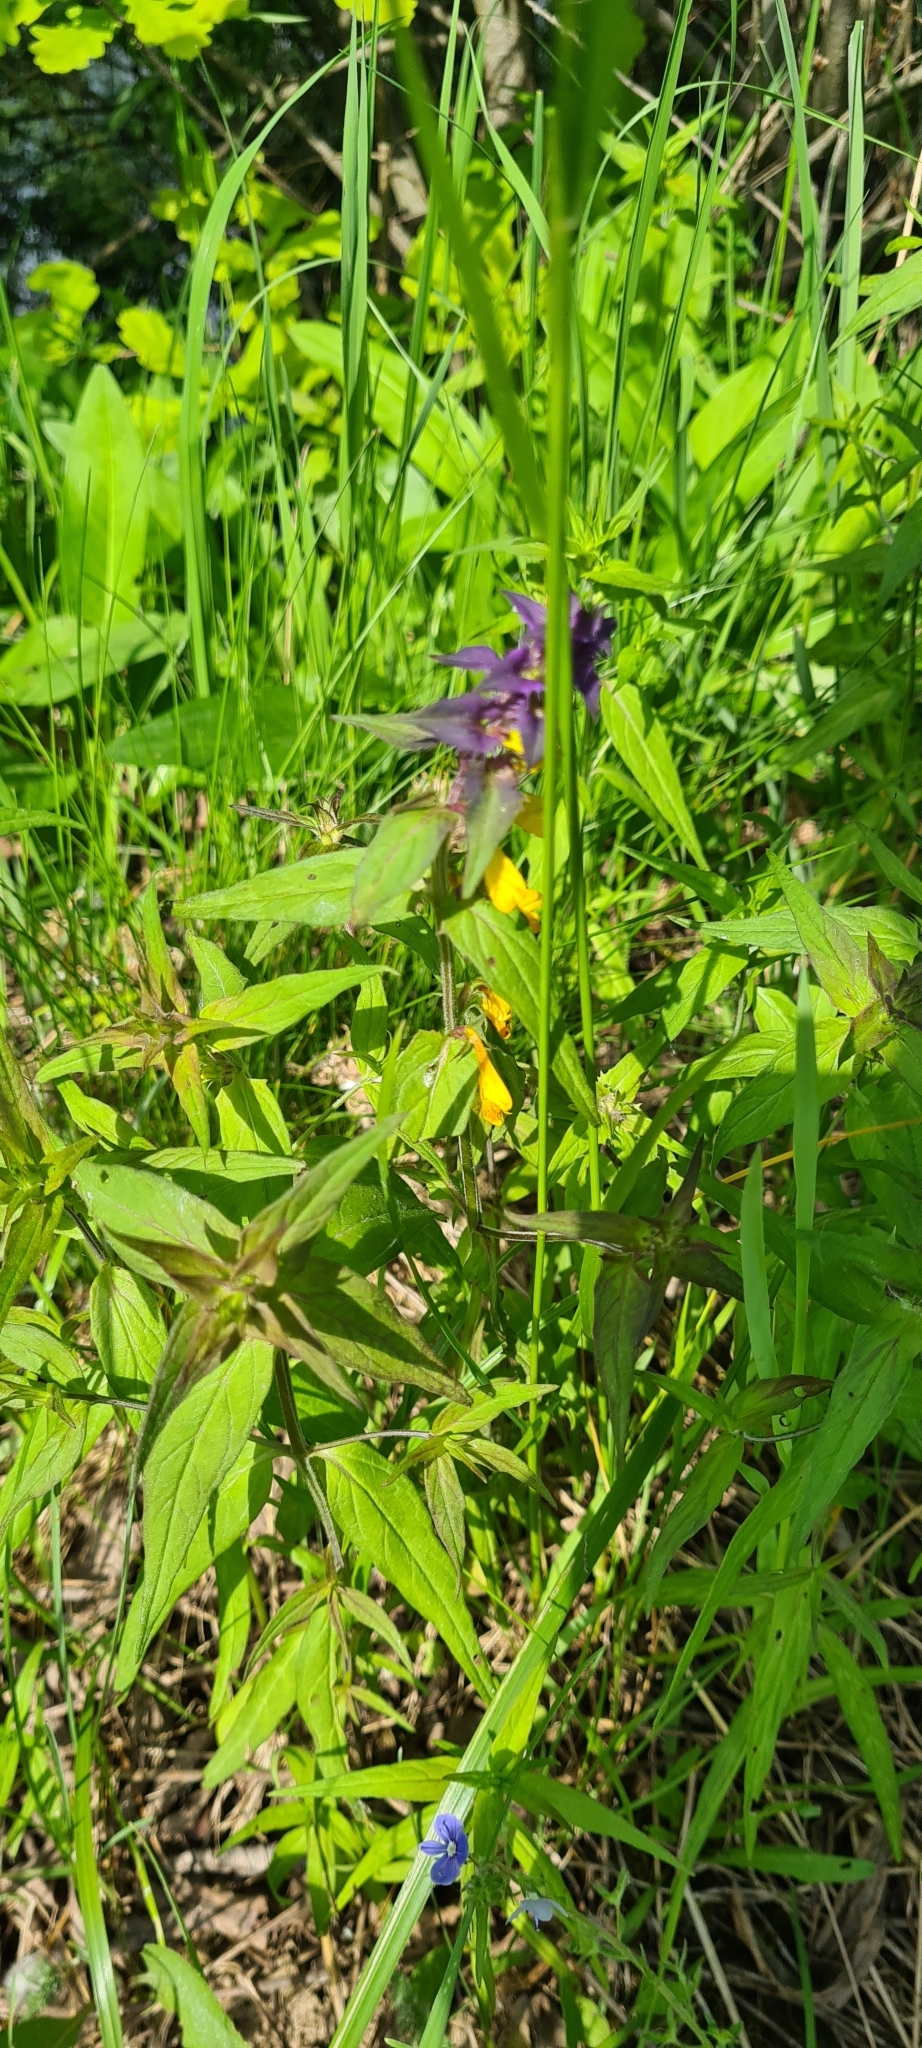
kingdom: Plantae
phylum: Tracheophyta
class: Magnoliopsida
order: Lamiales
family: Orobanchaceae
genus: Melampyrum
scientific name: Melampyrum nemorosum
